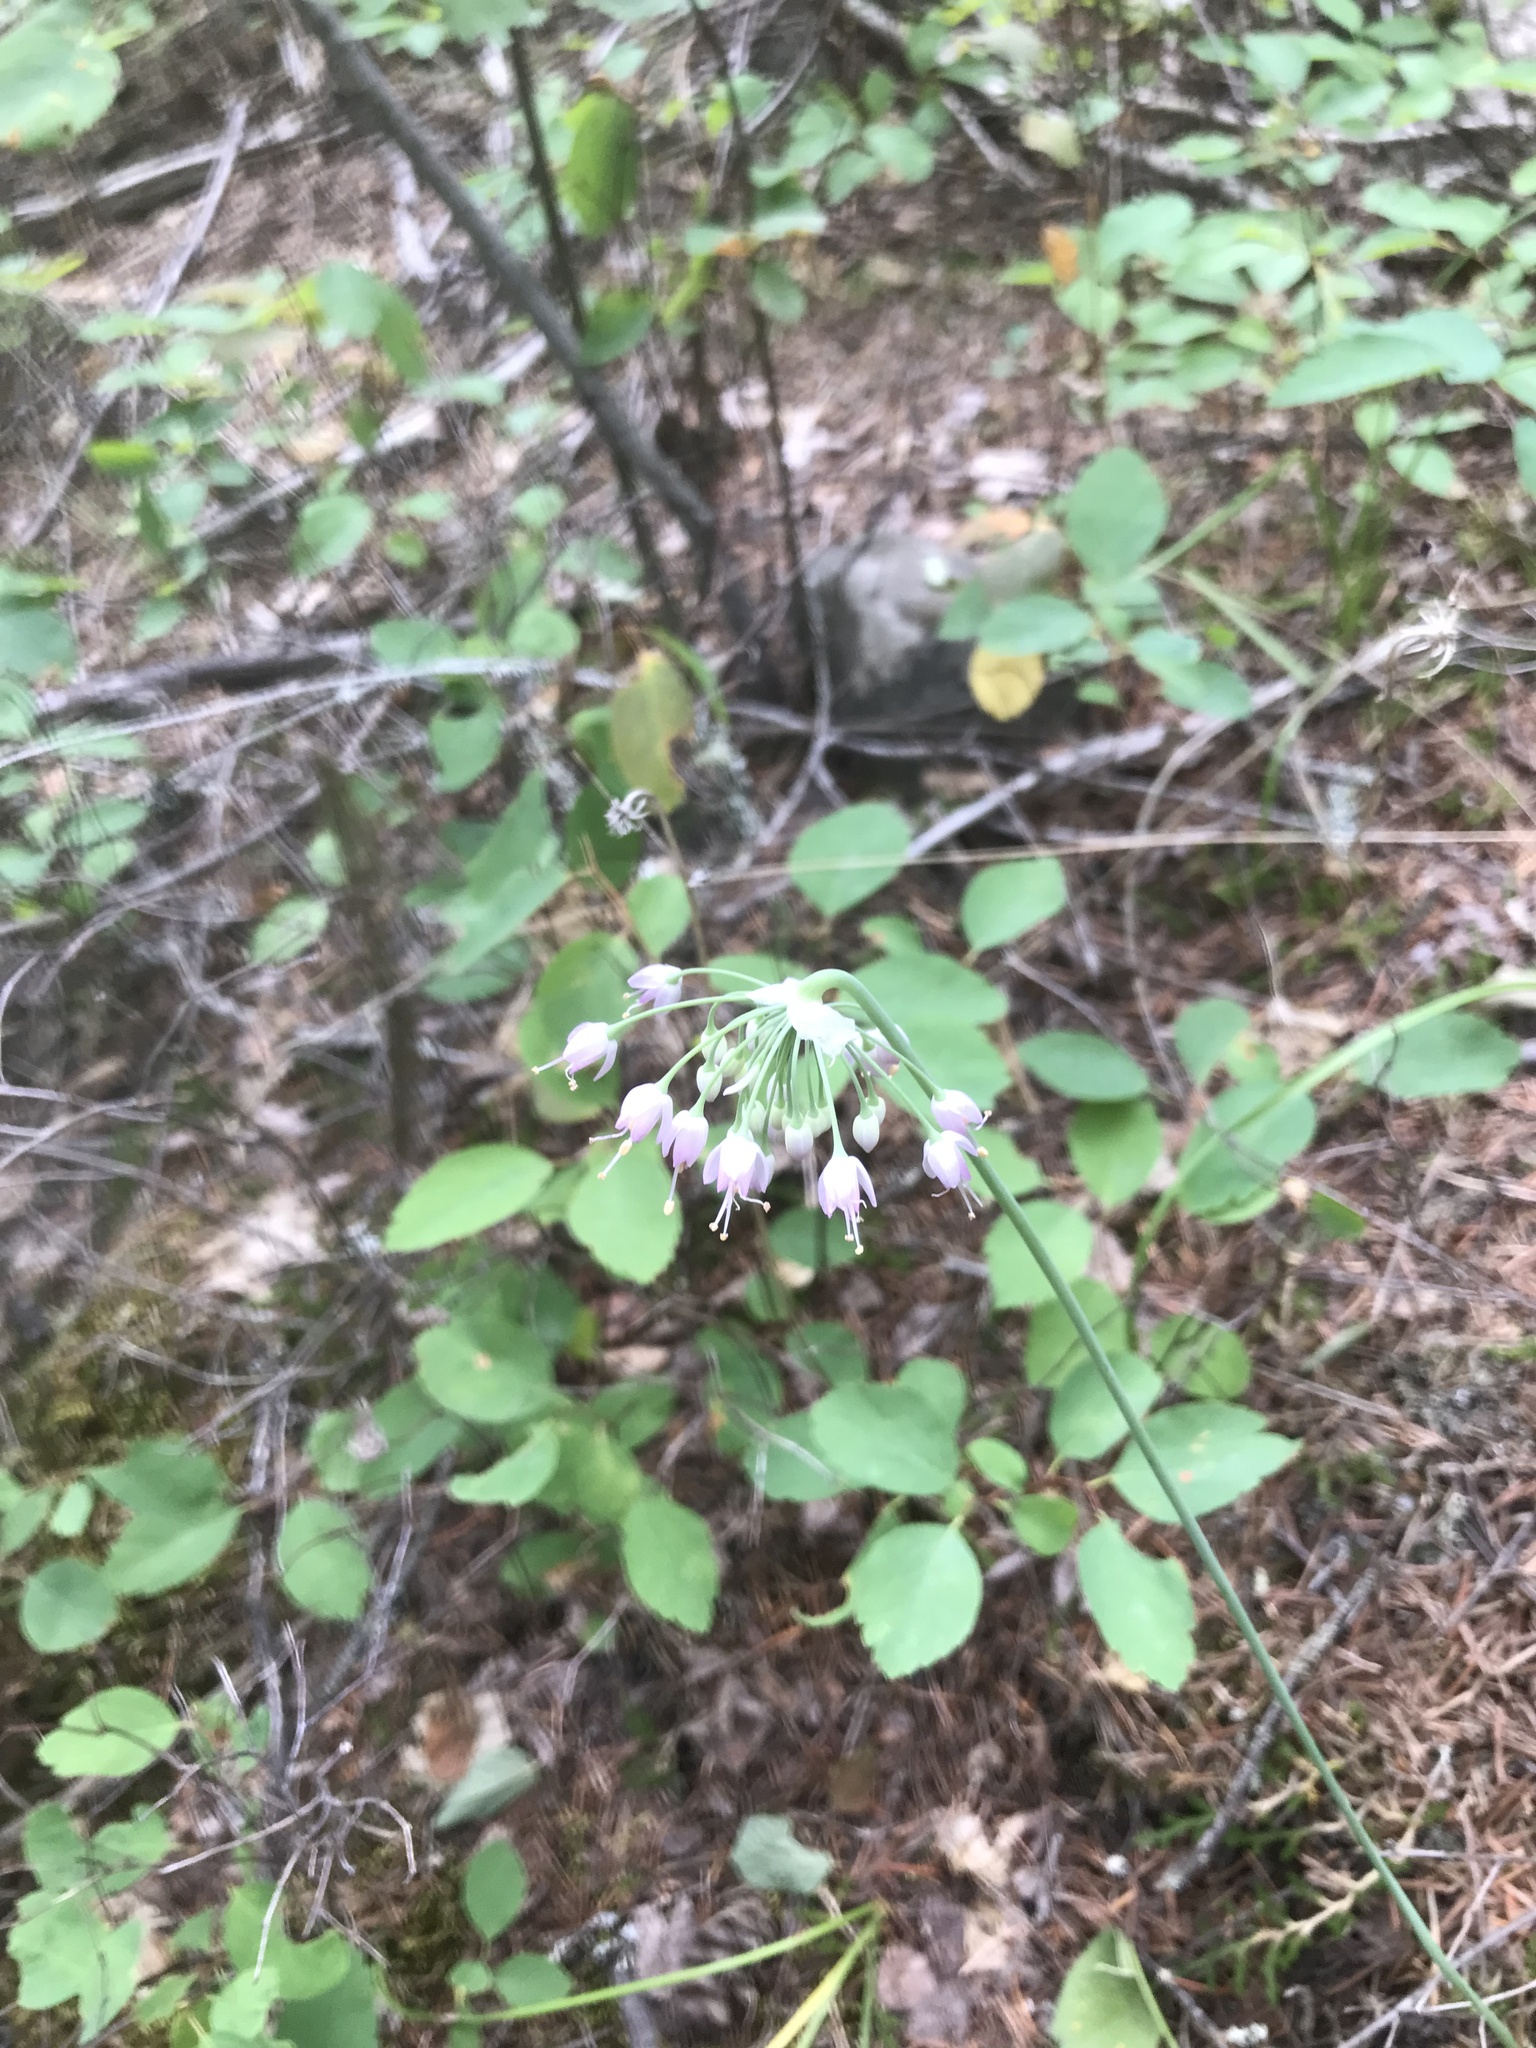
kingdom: Plantae
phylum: Tracheophyta
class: Liliopsida
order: Asparagales
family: Amaryllidaceae
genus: Allium
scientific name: Allium cernuum
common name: Nodding onion
